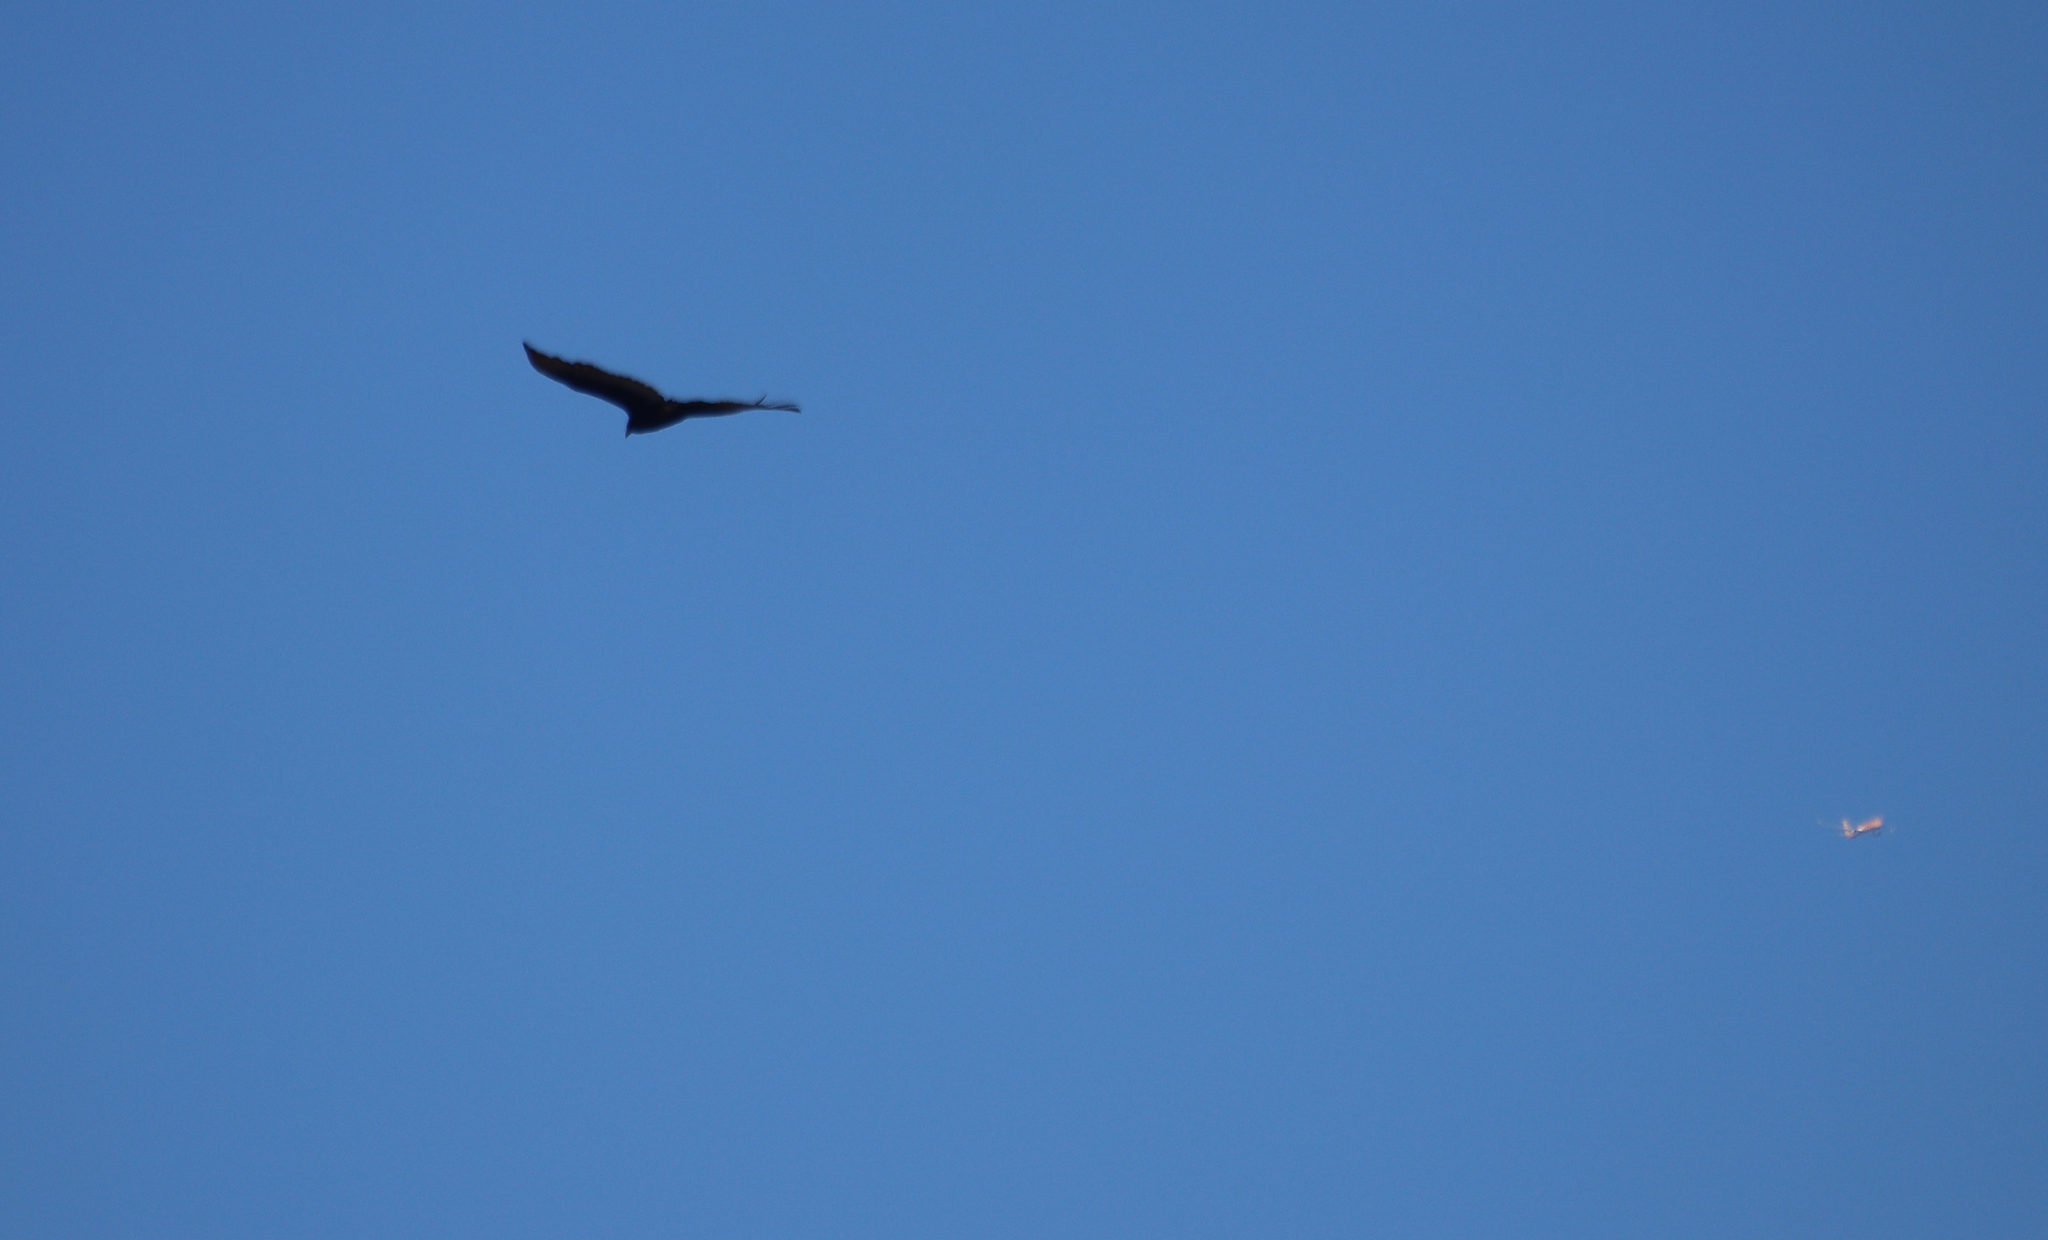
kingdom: Animalia
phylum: Chordata
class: Aves
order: Accipitriformes
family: Cathartidae
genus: Cathartes
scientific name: Cathartes aura
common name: Turkey vulture
